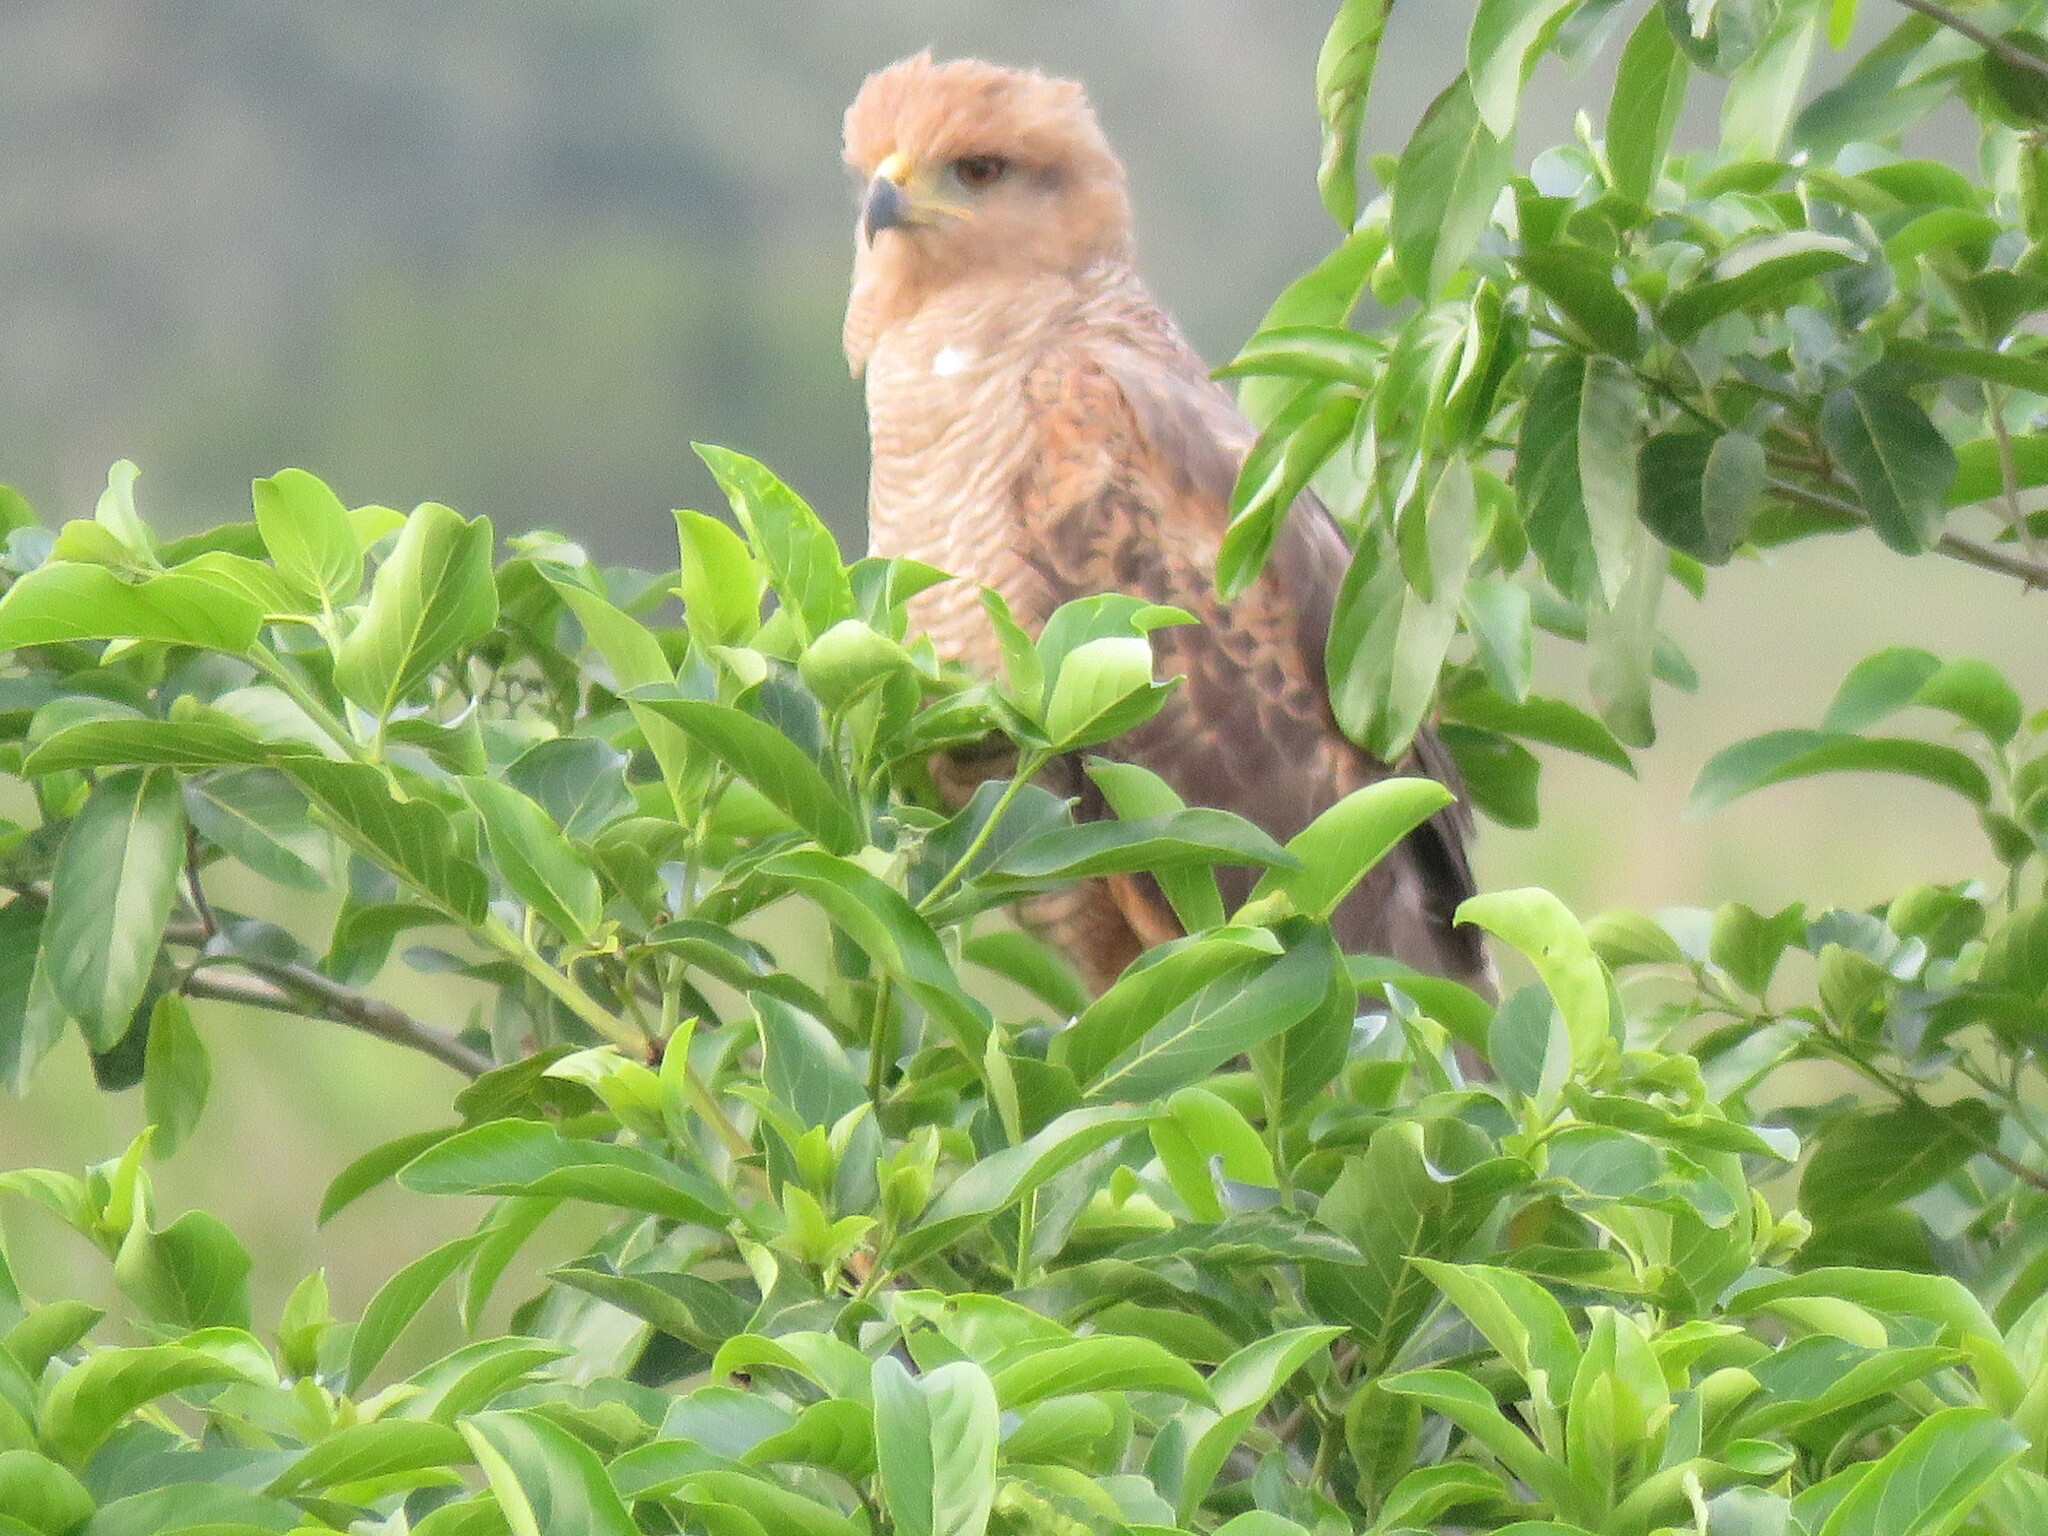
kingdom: Animalia
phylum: Chordata
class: Aves
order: Accipitriformes
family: Accipitridae
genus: Buteogallus
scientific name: Buteogallus meridionalis
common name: Savanna hawk
